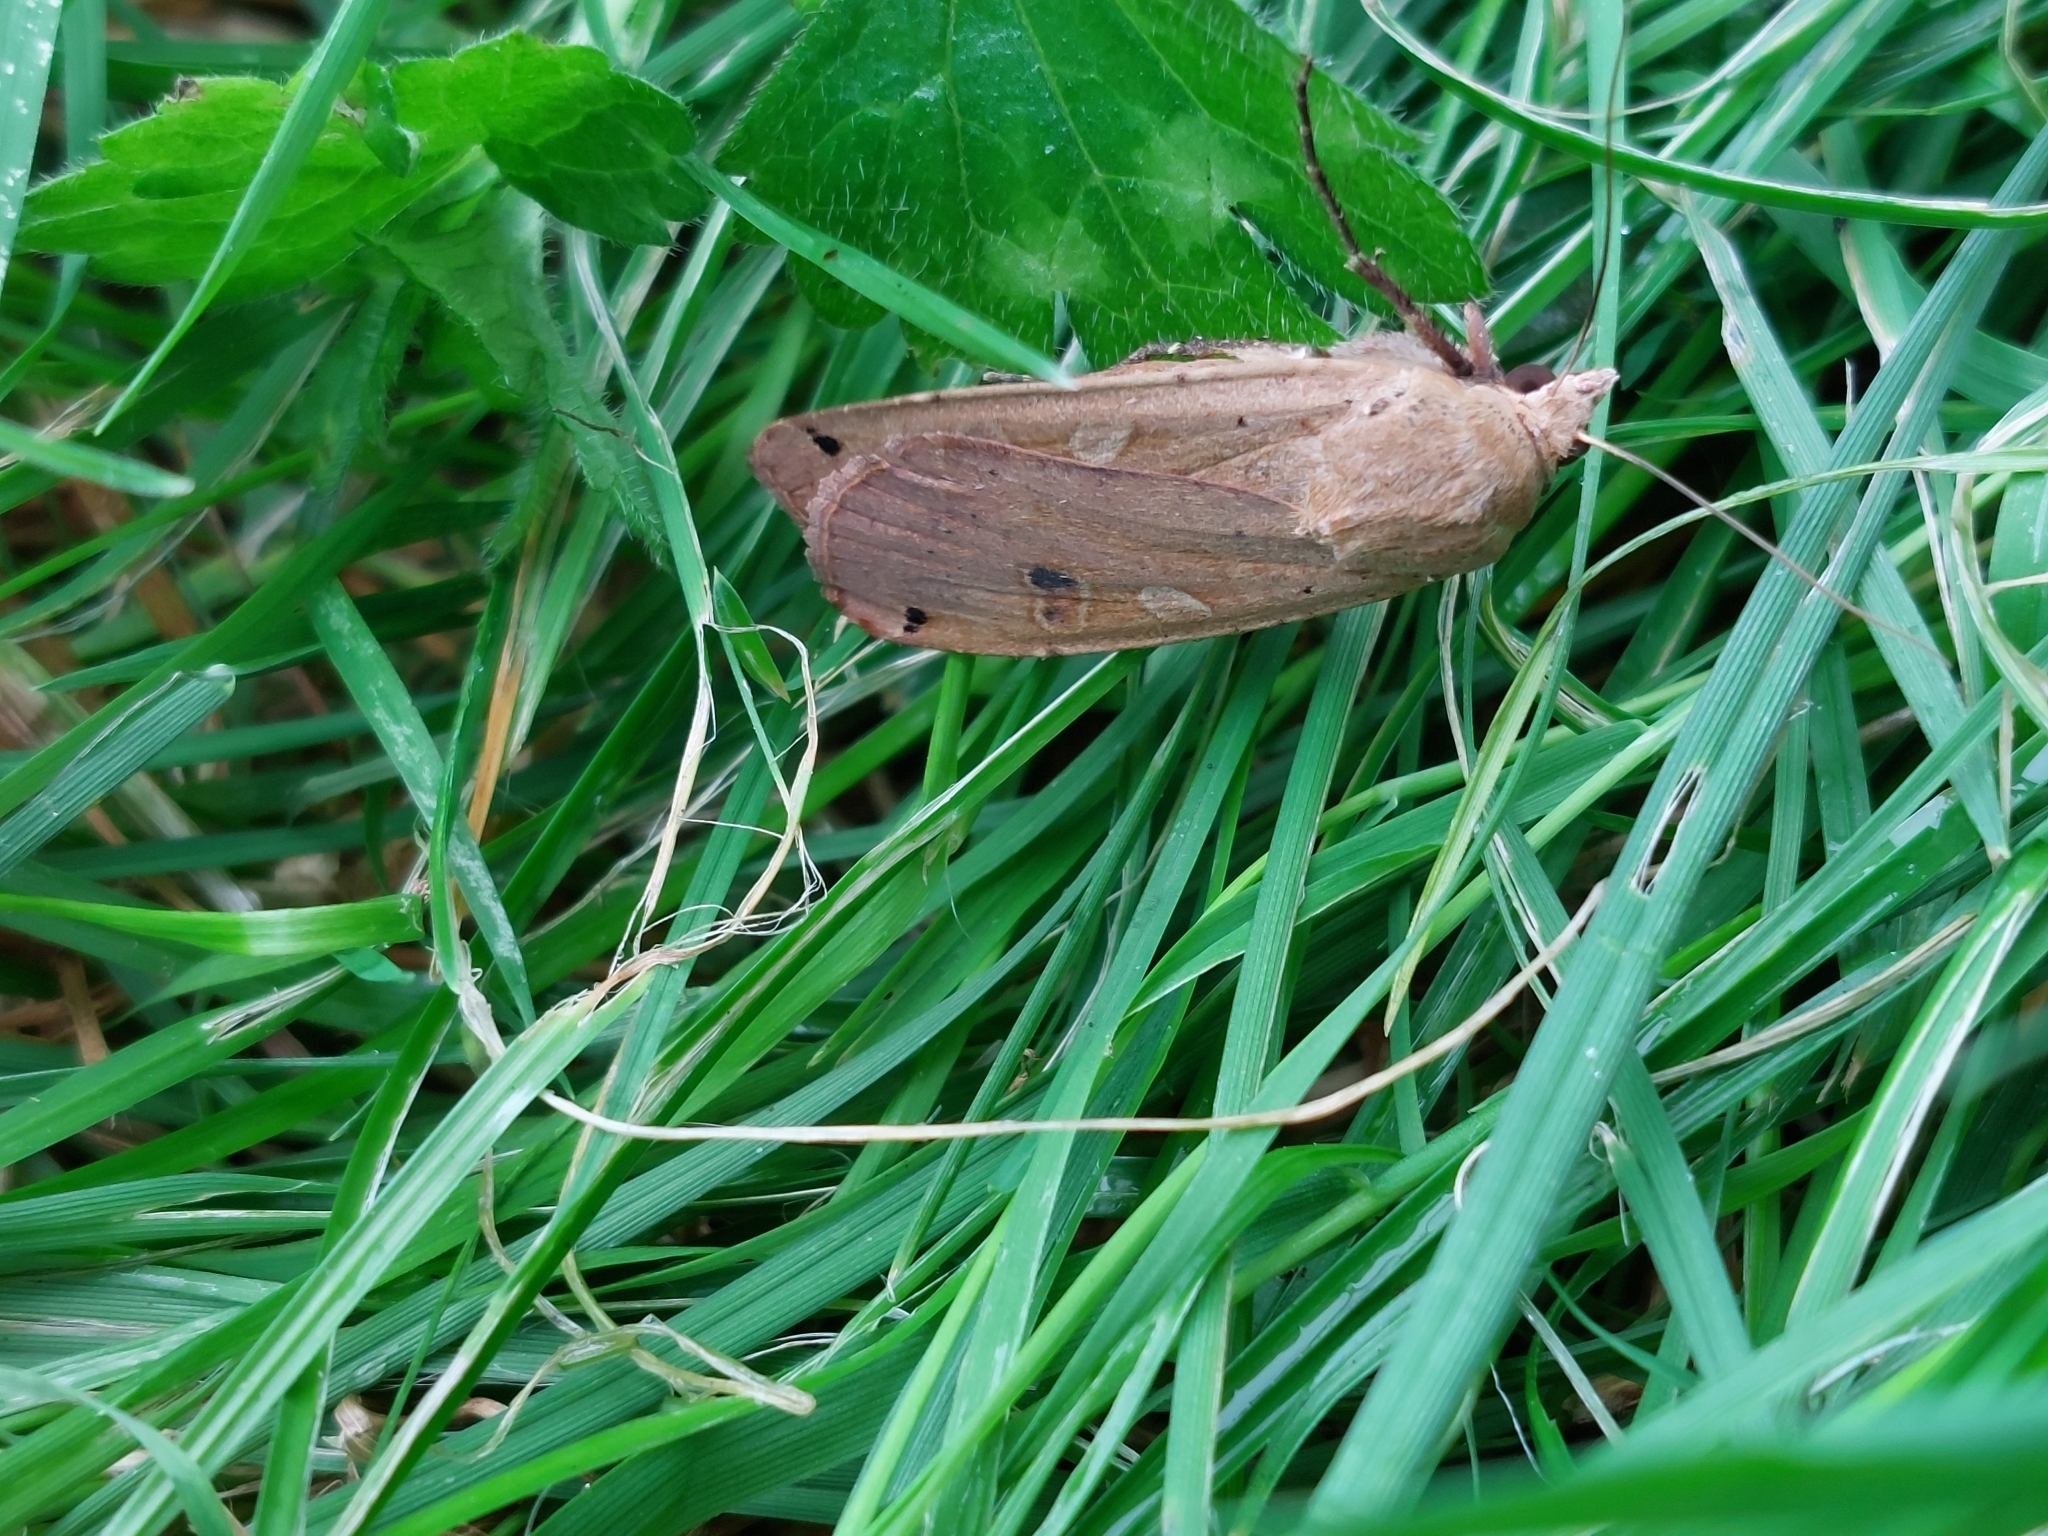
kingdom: Animalia
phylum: Arthropoda
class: Insecta
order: Lepidoptera
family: Noctuidae
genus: Noctua
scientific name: Noctua pronuba
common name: Large yellow underwing
